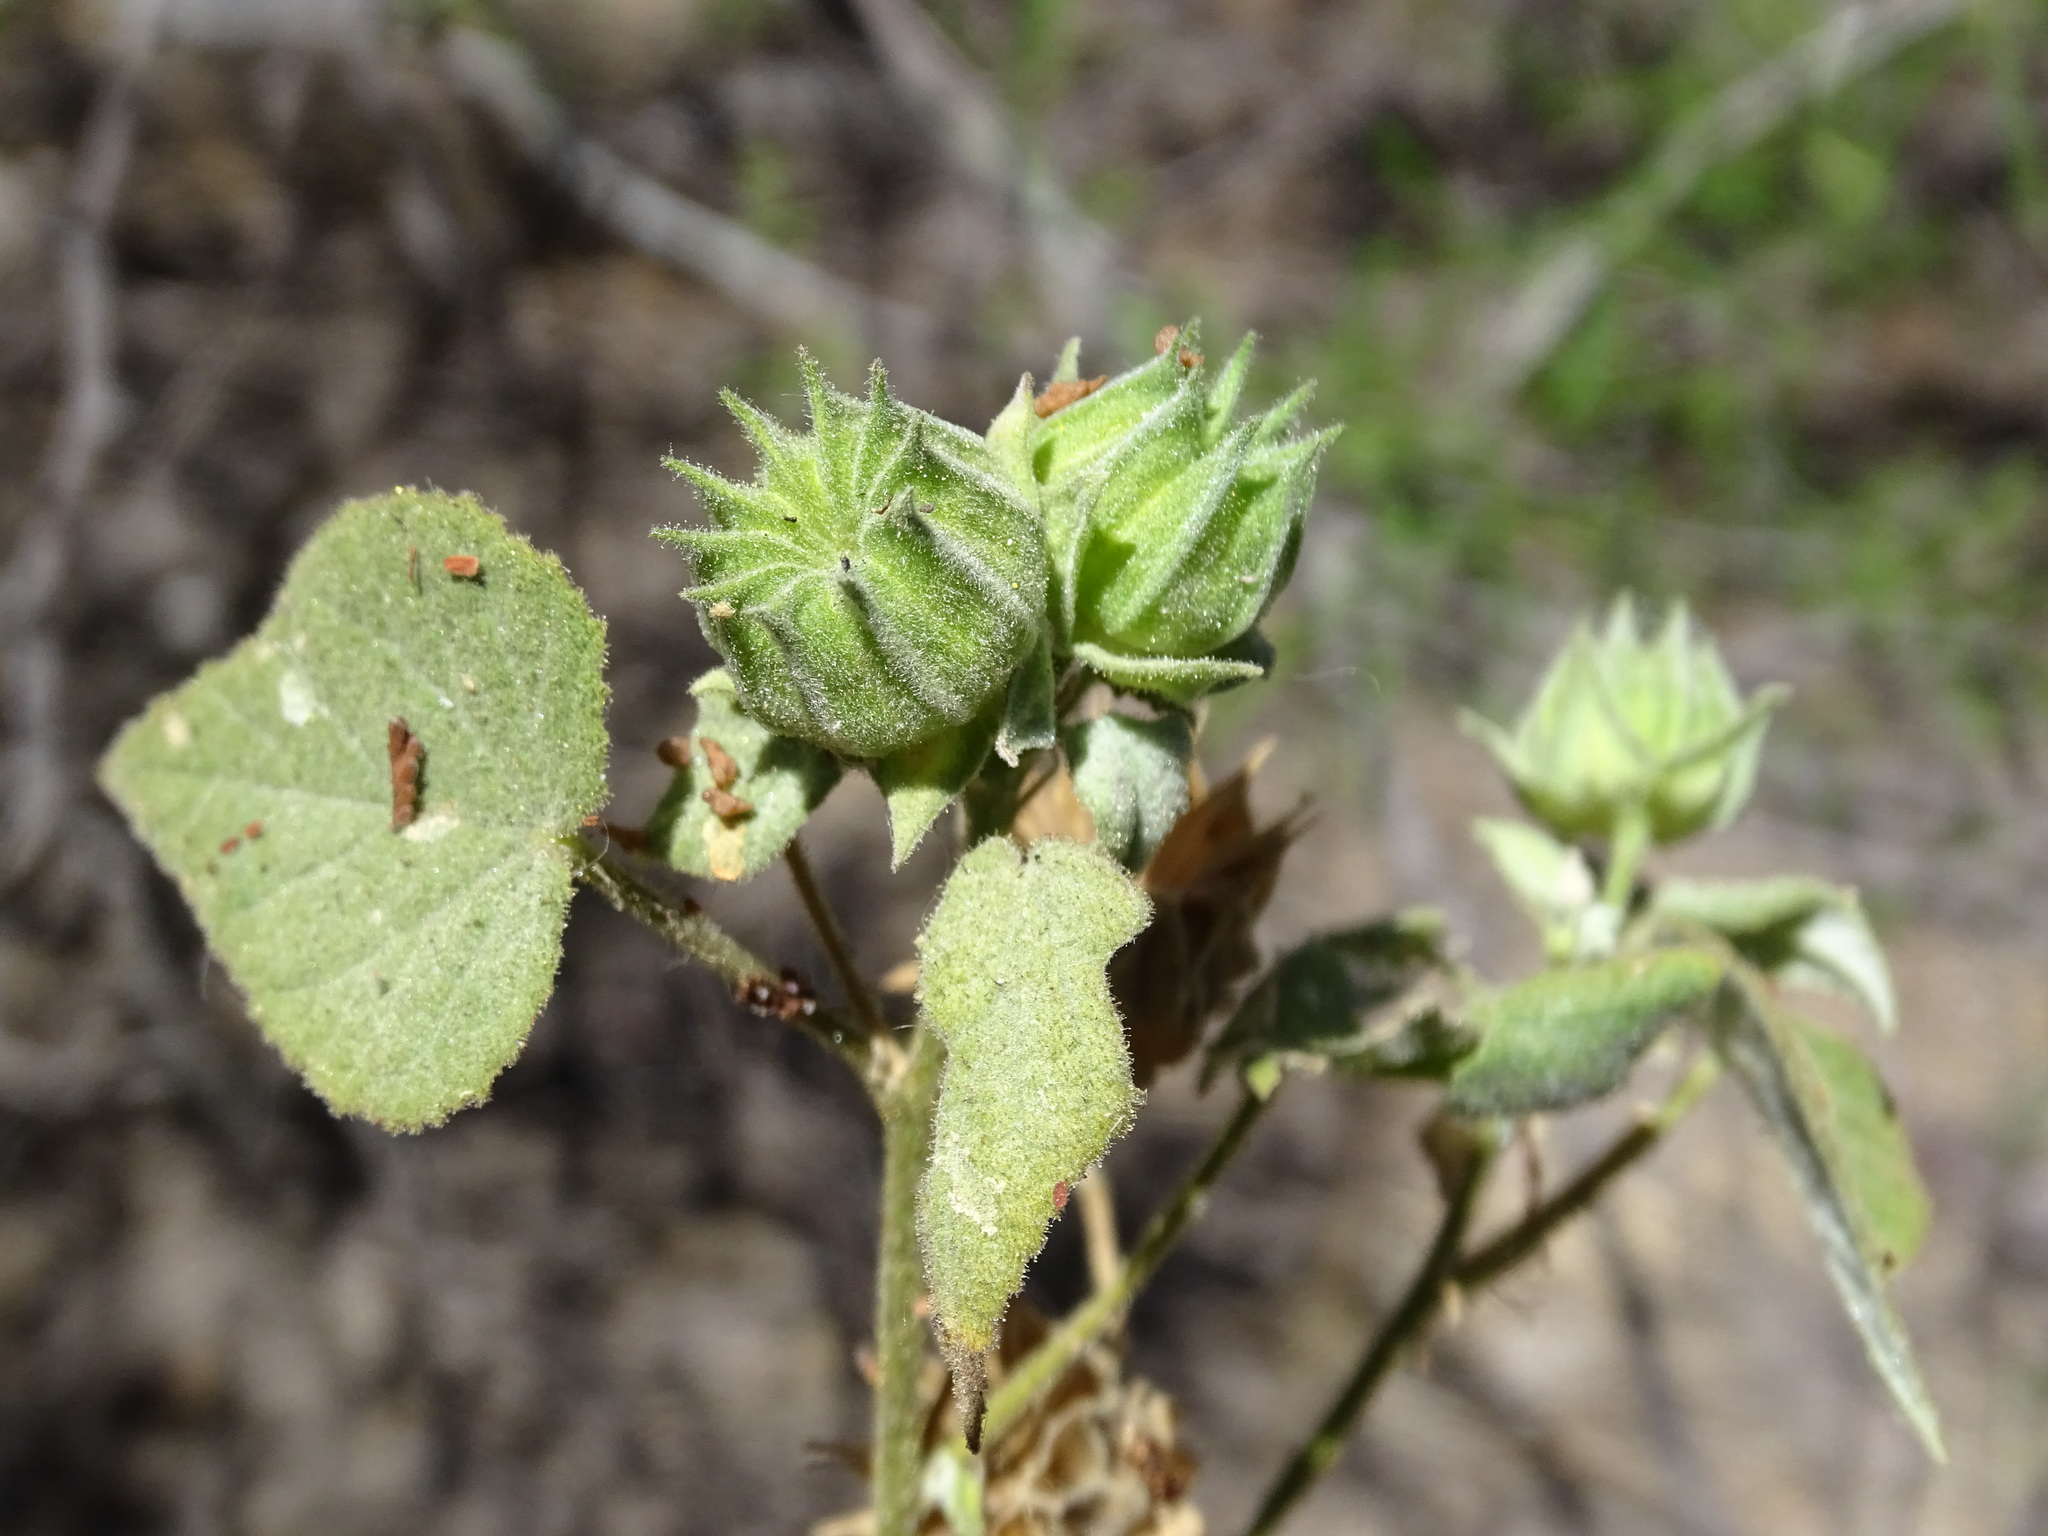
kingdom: Plantae
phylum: Tracheophyta
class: Magnoliopsida
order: Malvales
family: Malvaceae
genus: Abutilon
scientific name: Abutilon abutiloides
